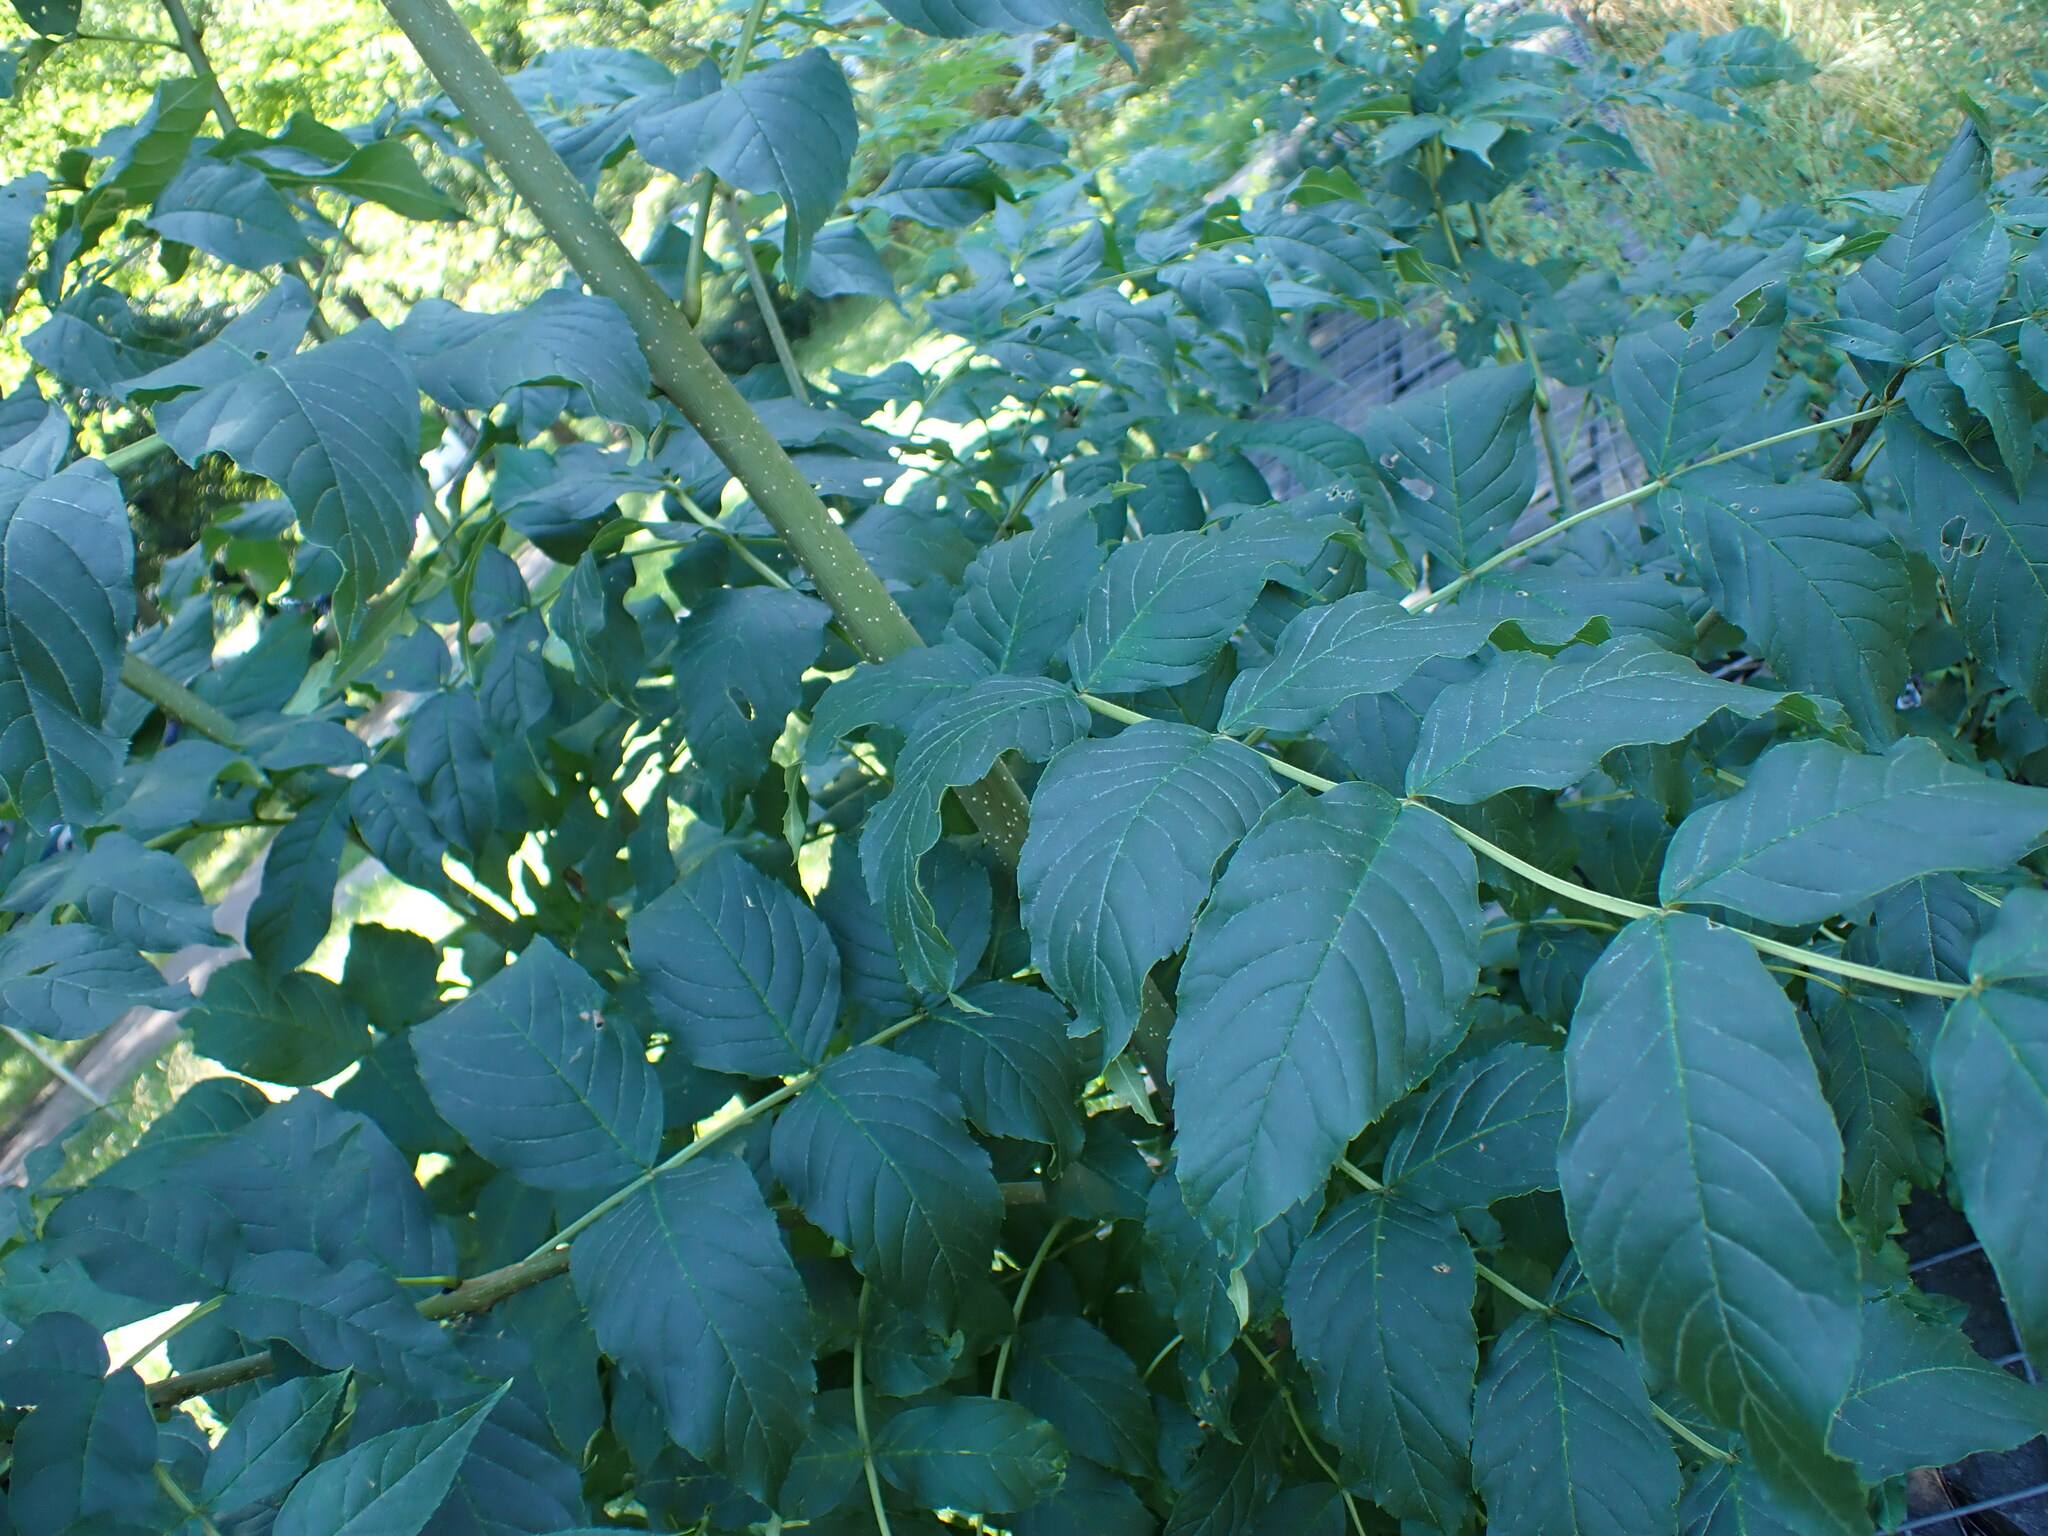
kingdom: Plantae
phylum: Tracheophyta
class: Magnoliopsida
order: Lamiales
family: Oleaceae
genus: Fraxinus
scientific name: Fraxinus excelsior
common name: European ash
